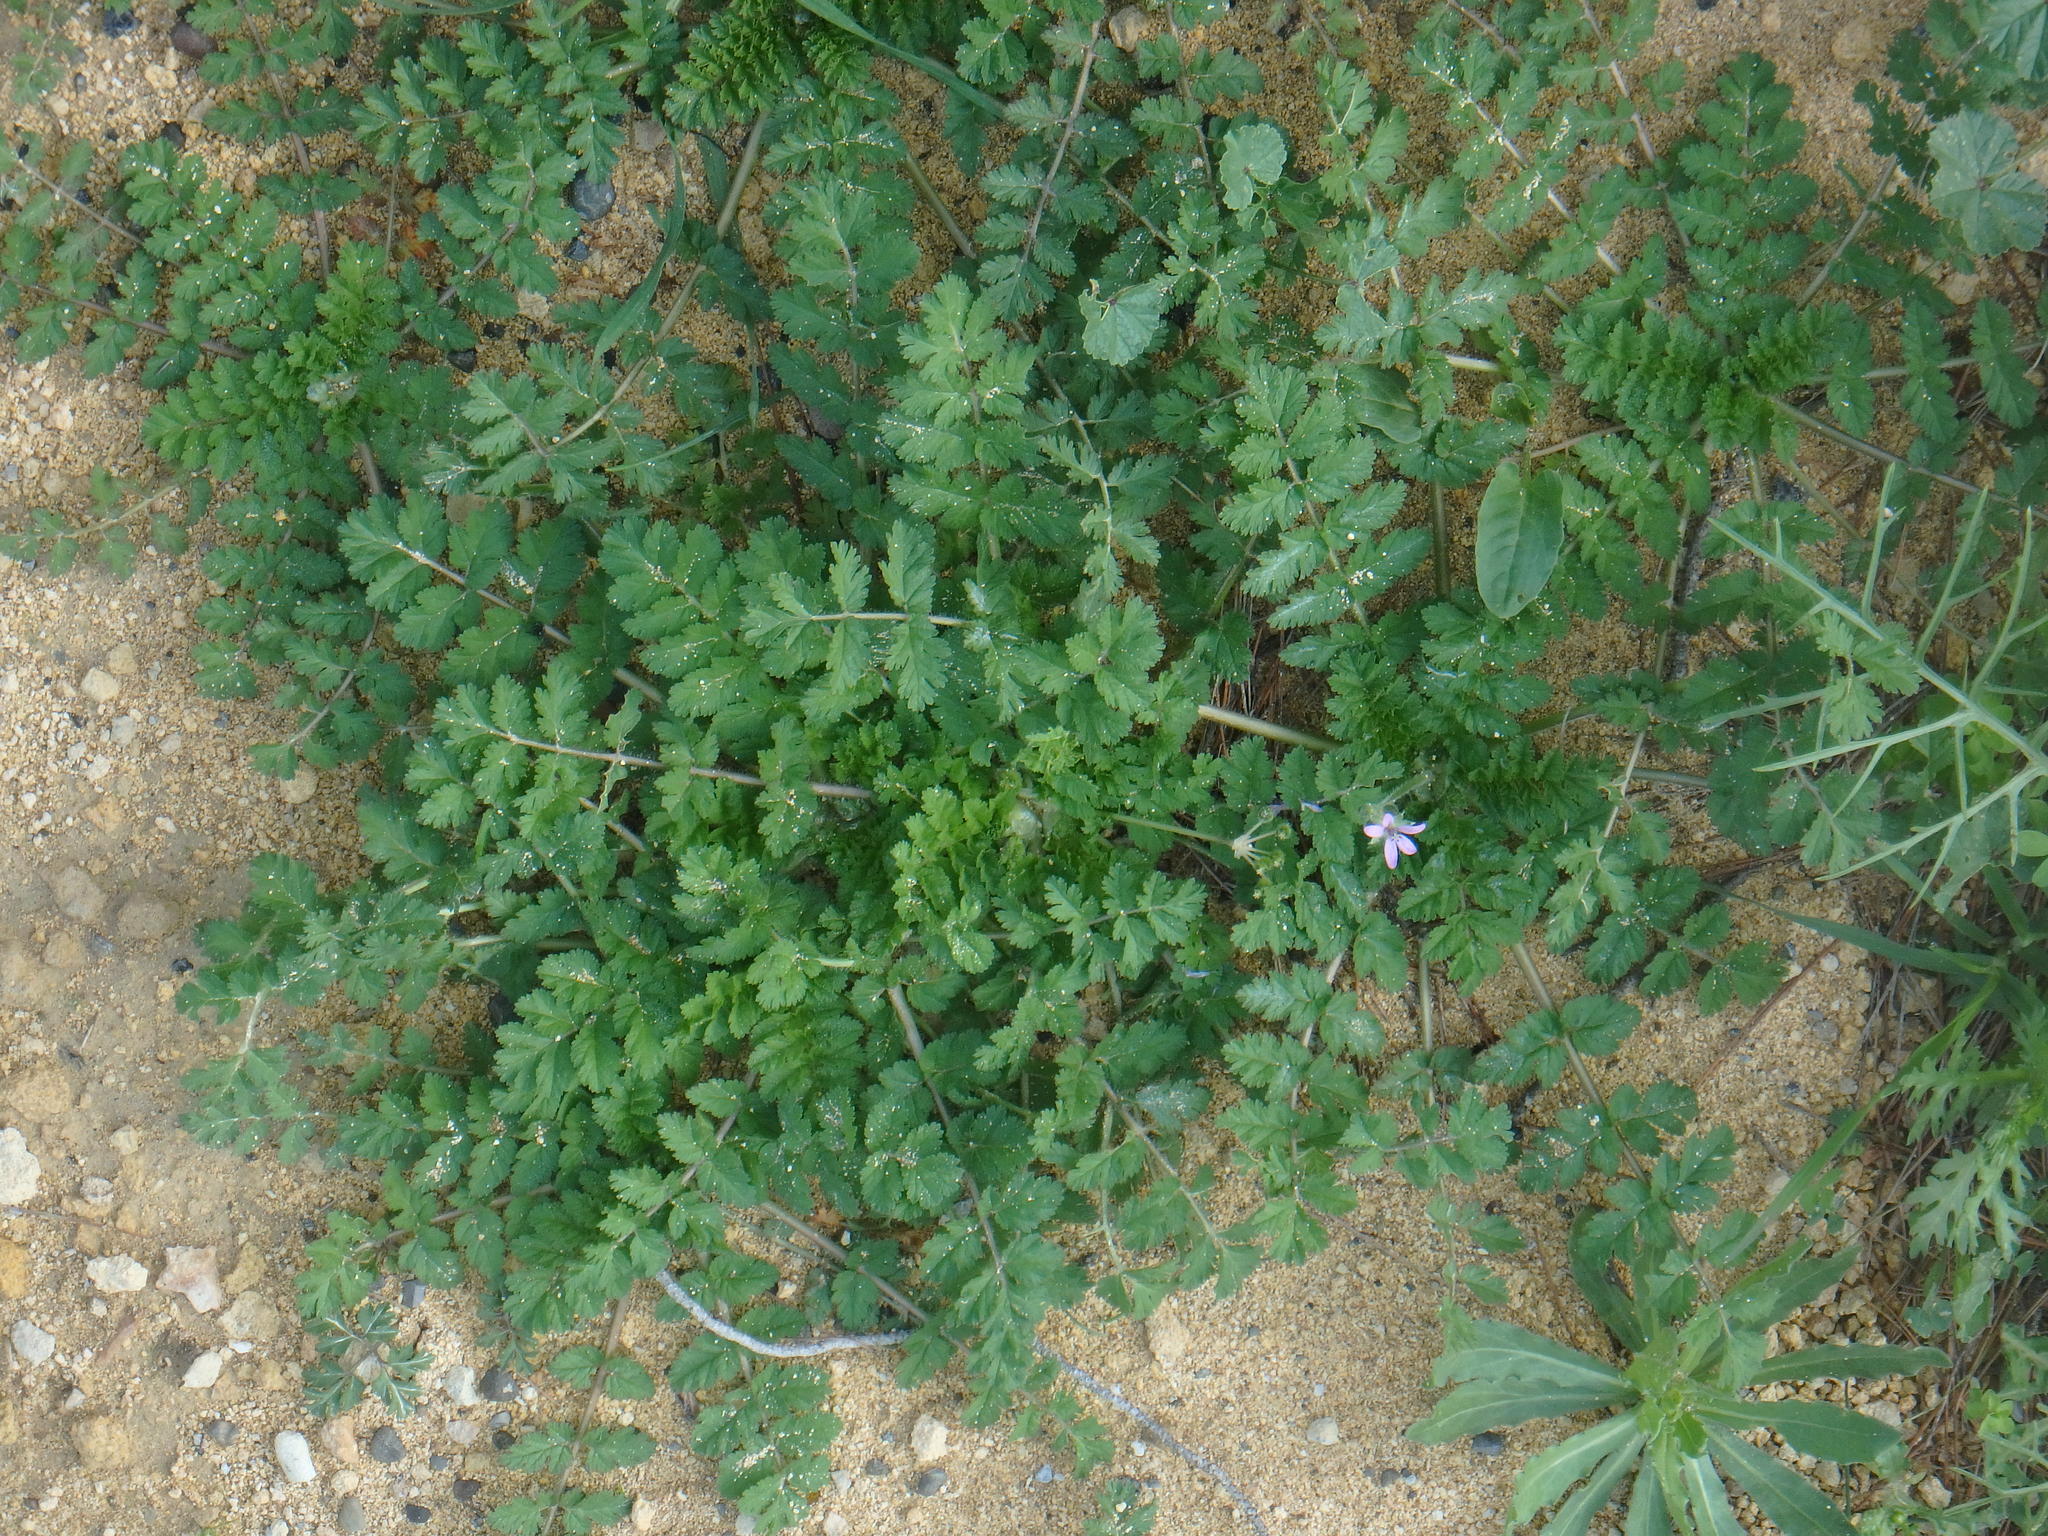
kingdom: Plantae
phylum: Tracheophyta
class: Magnoliopsida
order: Geraniales
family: Geraniaceae
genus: Erodium
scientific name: Erodium cicutarium
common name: Common stork's-bill
